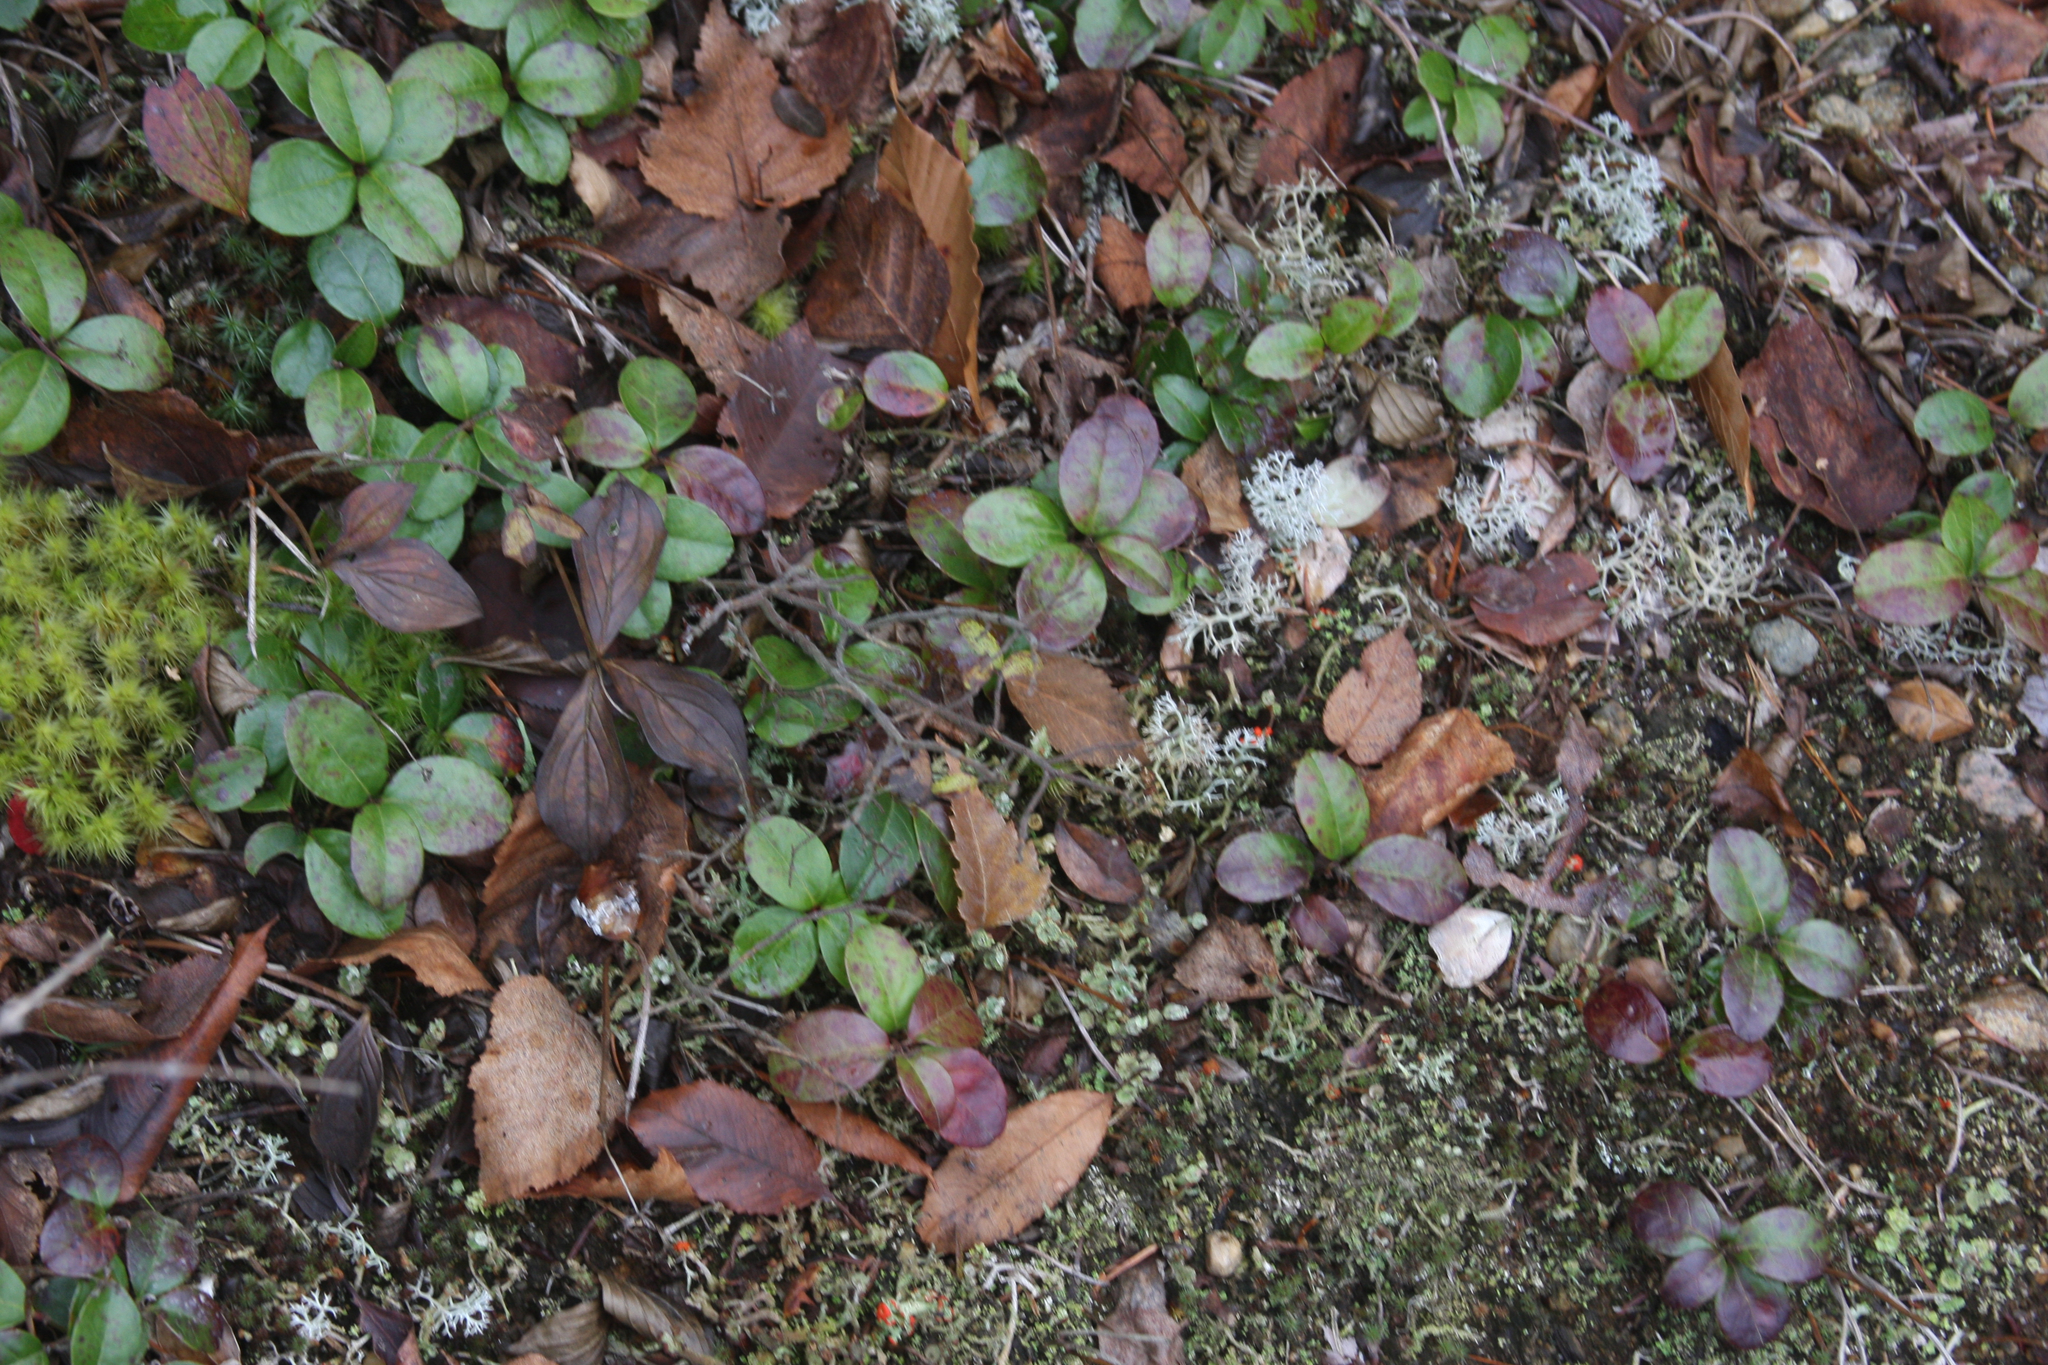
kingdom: Plantae
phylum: Tracheophyta
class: Magnoliopsida
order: Ericales
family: Ericaceae
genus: Gaultheria
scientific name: Gaultheria procumbens
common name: Checkerberry
